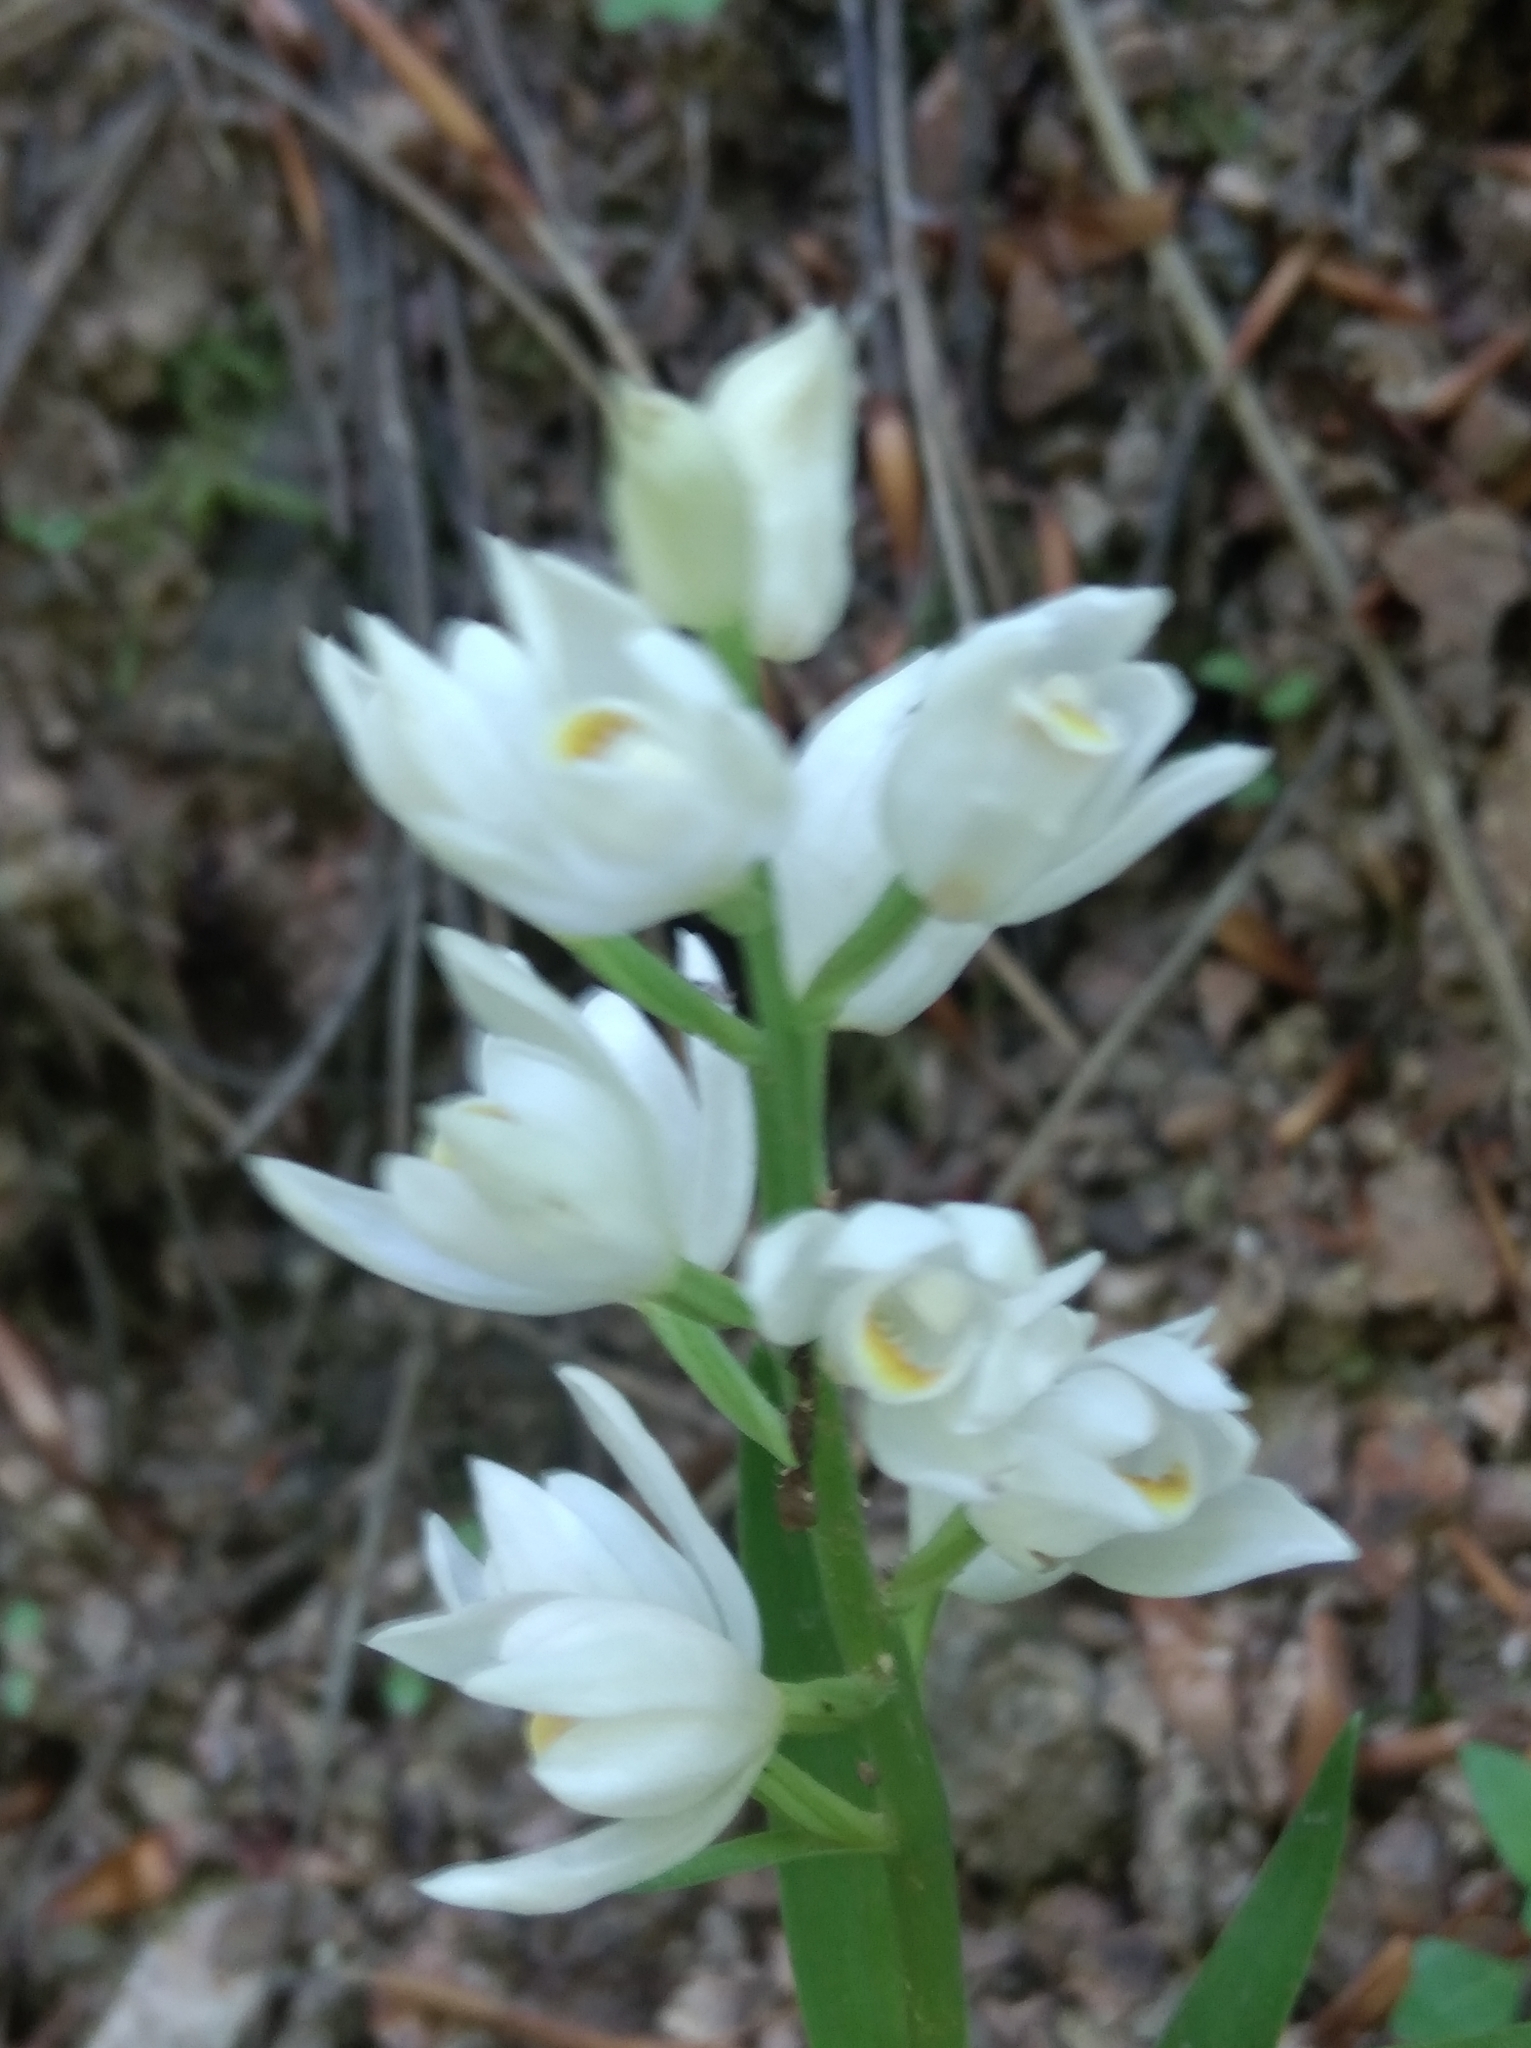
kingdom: Plantae
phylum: Tracheophyta
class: Liliopsida
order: Asparagales
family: Orchidaceae
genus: Cephalanthera
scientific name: Cephalanthera damasonium
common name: White helleborine
